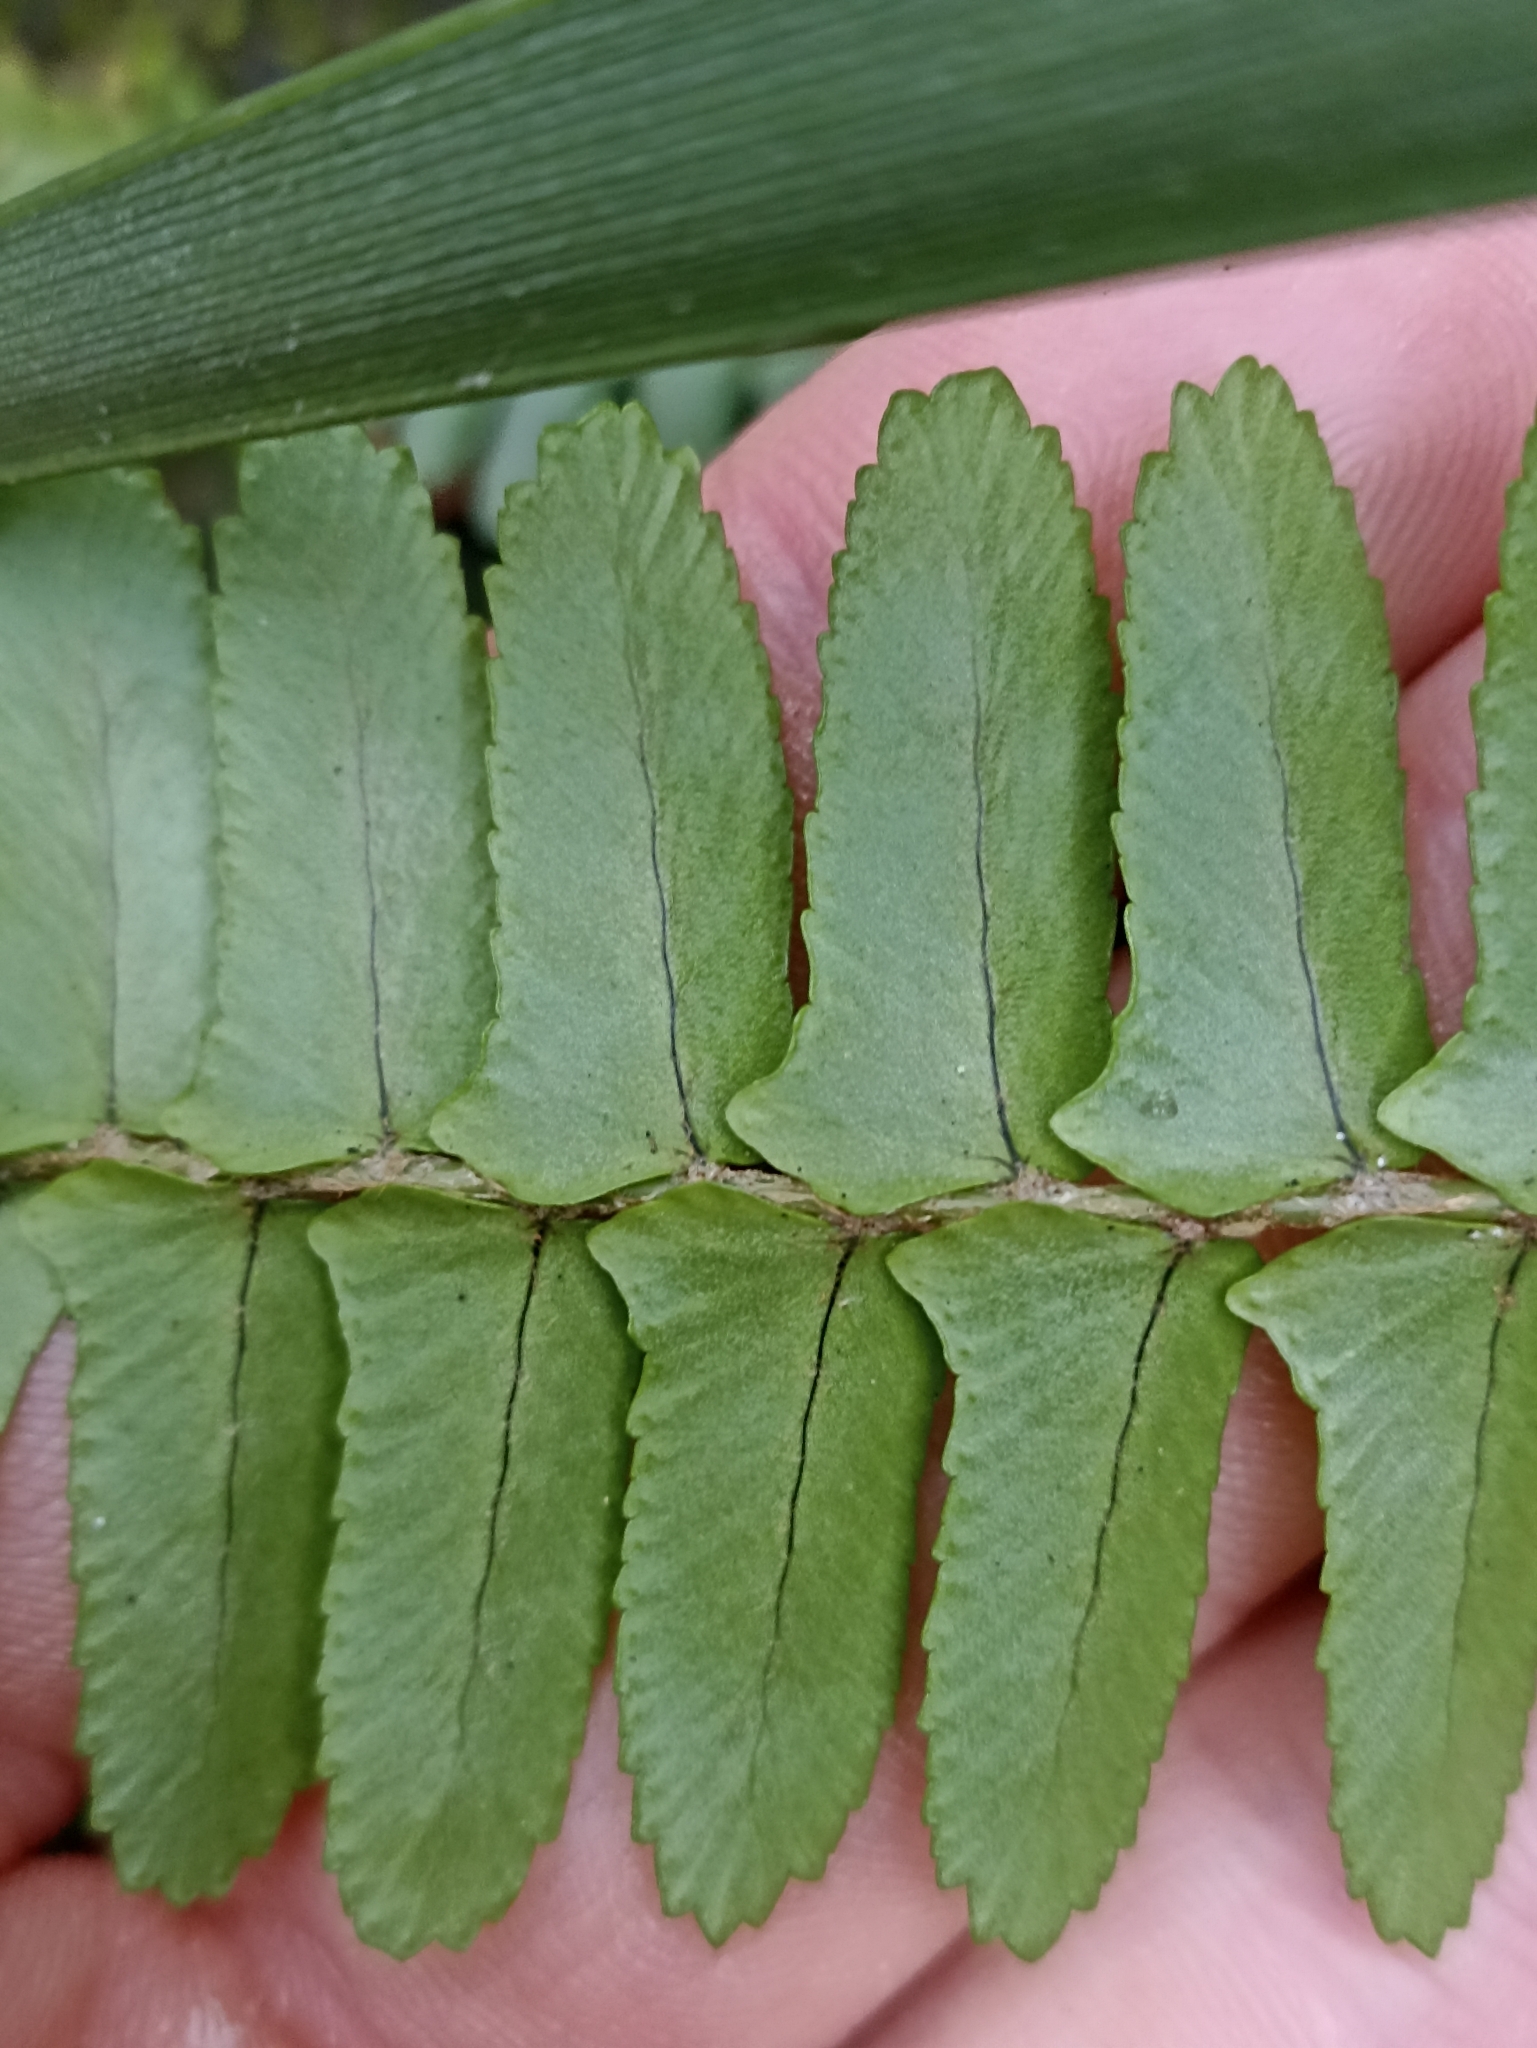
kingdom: Plantae
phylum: Tracheophyta
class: Polypodiopsida
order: Polypodiales
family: Nephrolepidaceae
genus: Nephrolepis
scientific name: Nephrolepis cordifolia
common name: Narrow swordfern
